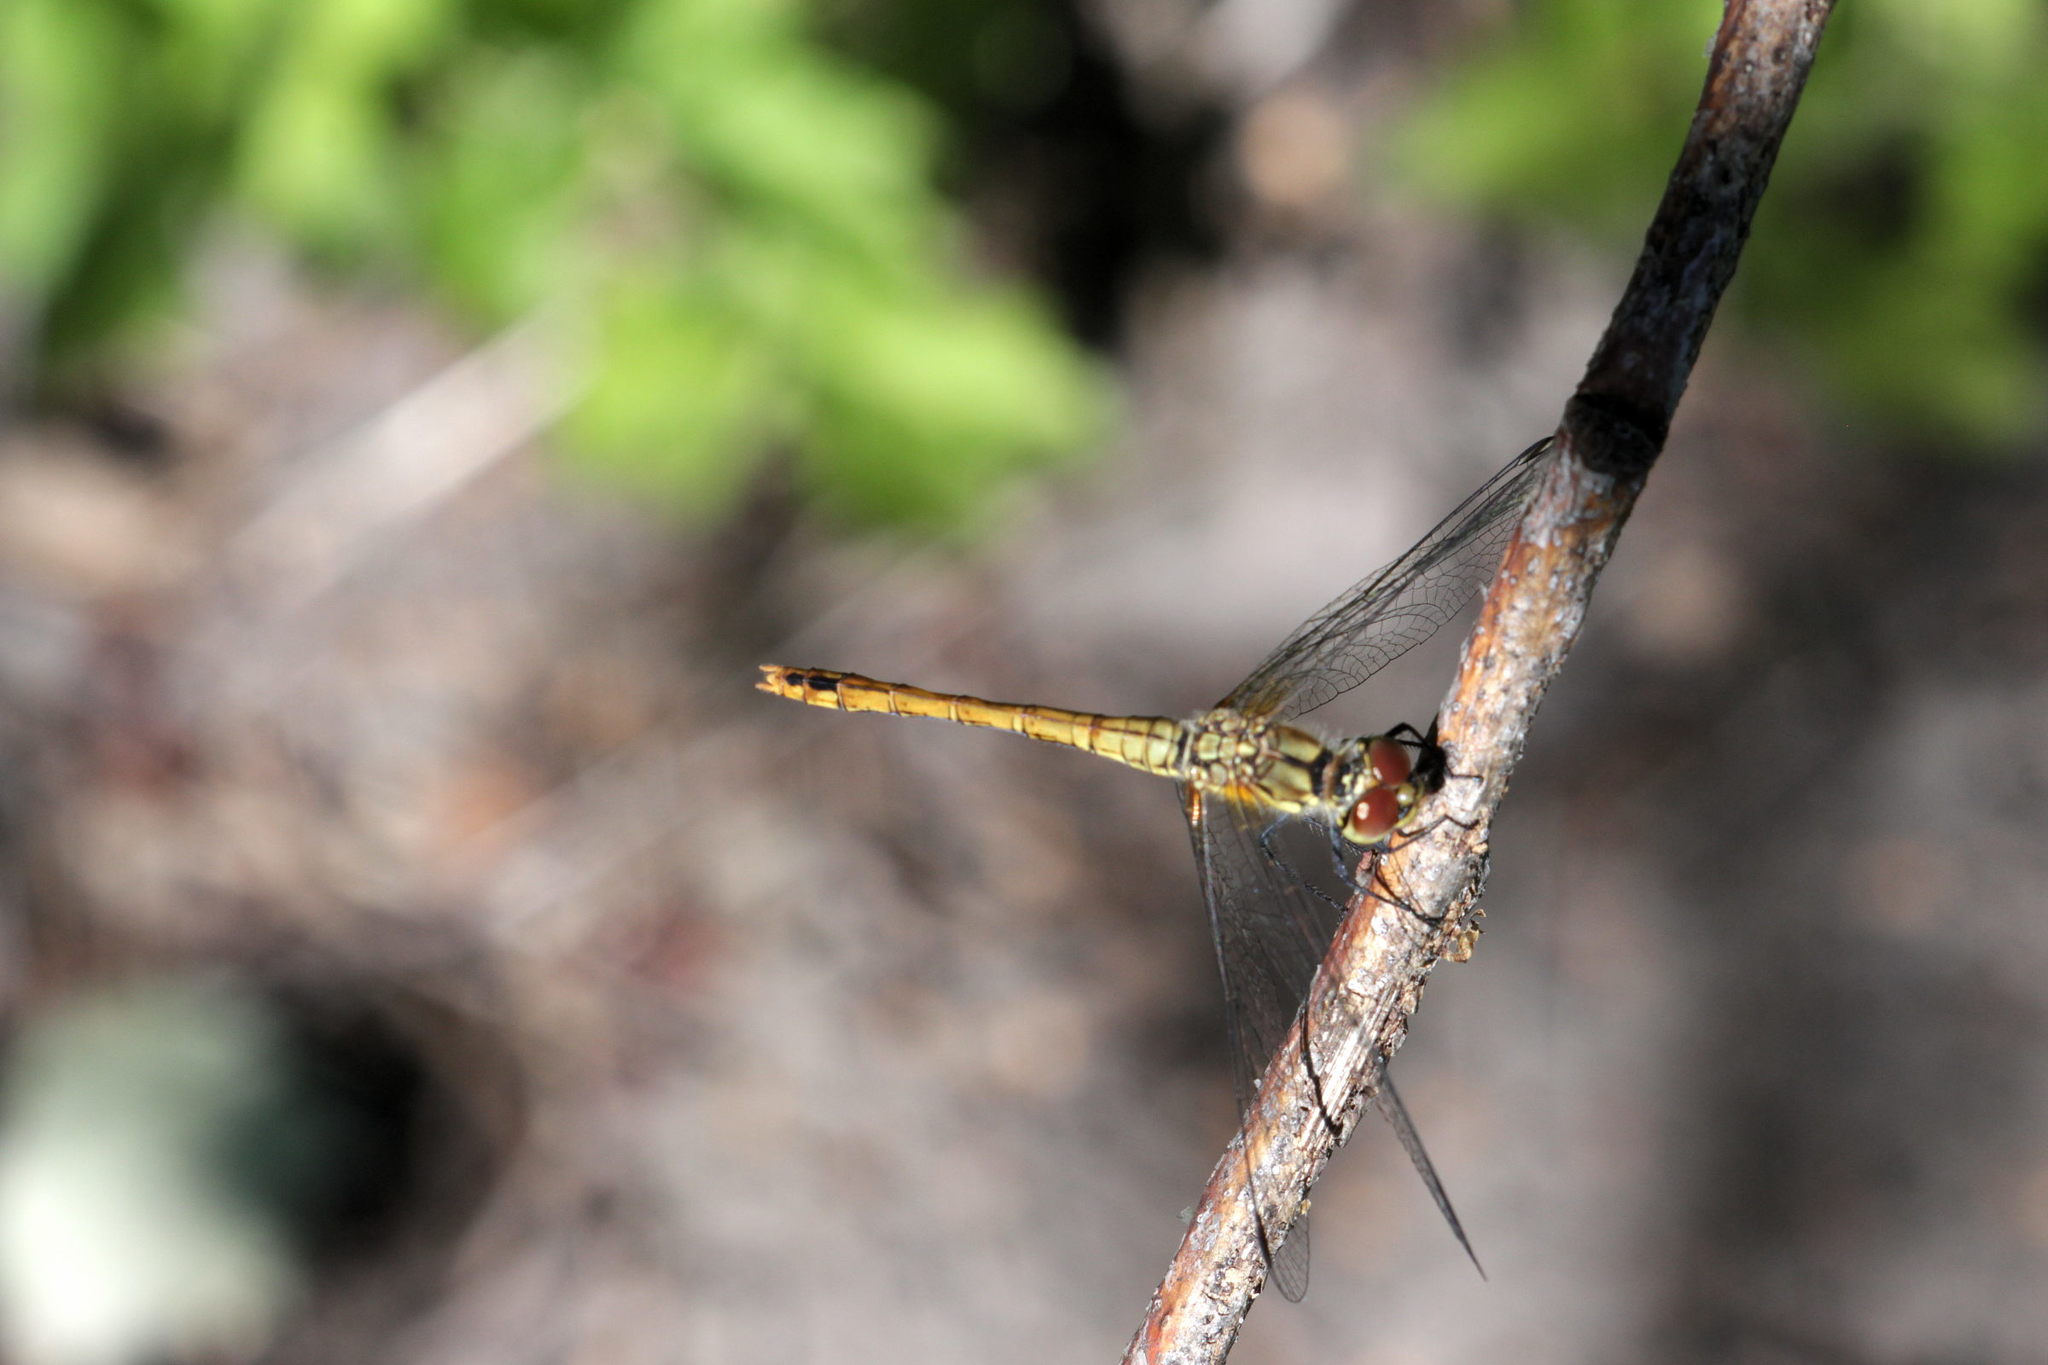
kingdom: Animalia
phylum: Arthropoda
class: Insecta
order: Odonata
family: Libellulidae
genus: Sympetrum
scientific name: Sympetrum sanguineum
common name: Ruddy darter
